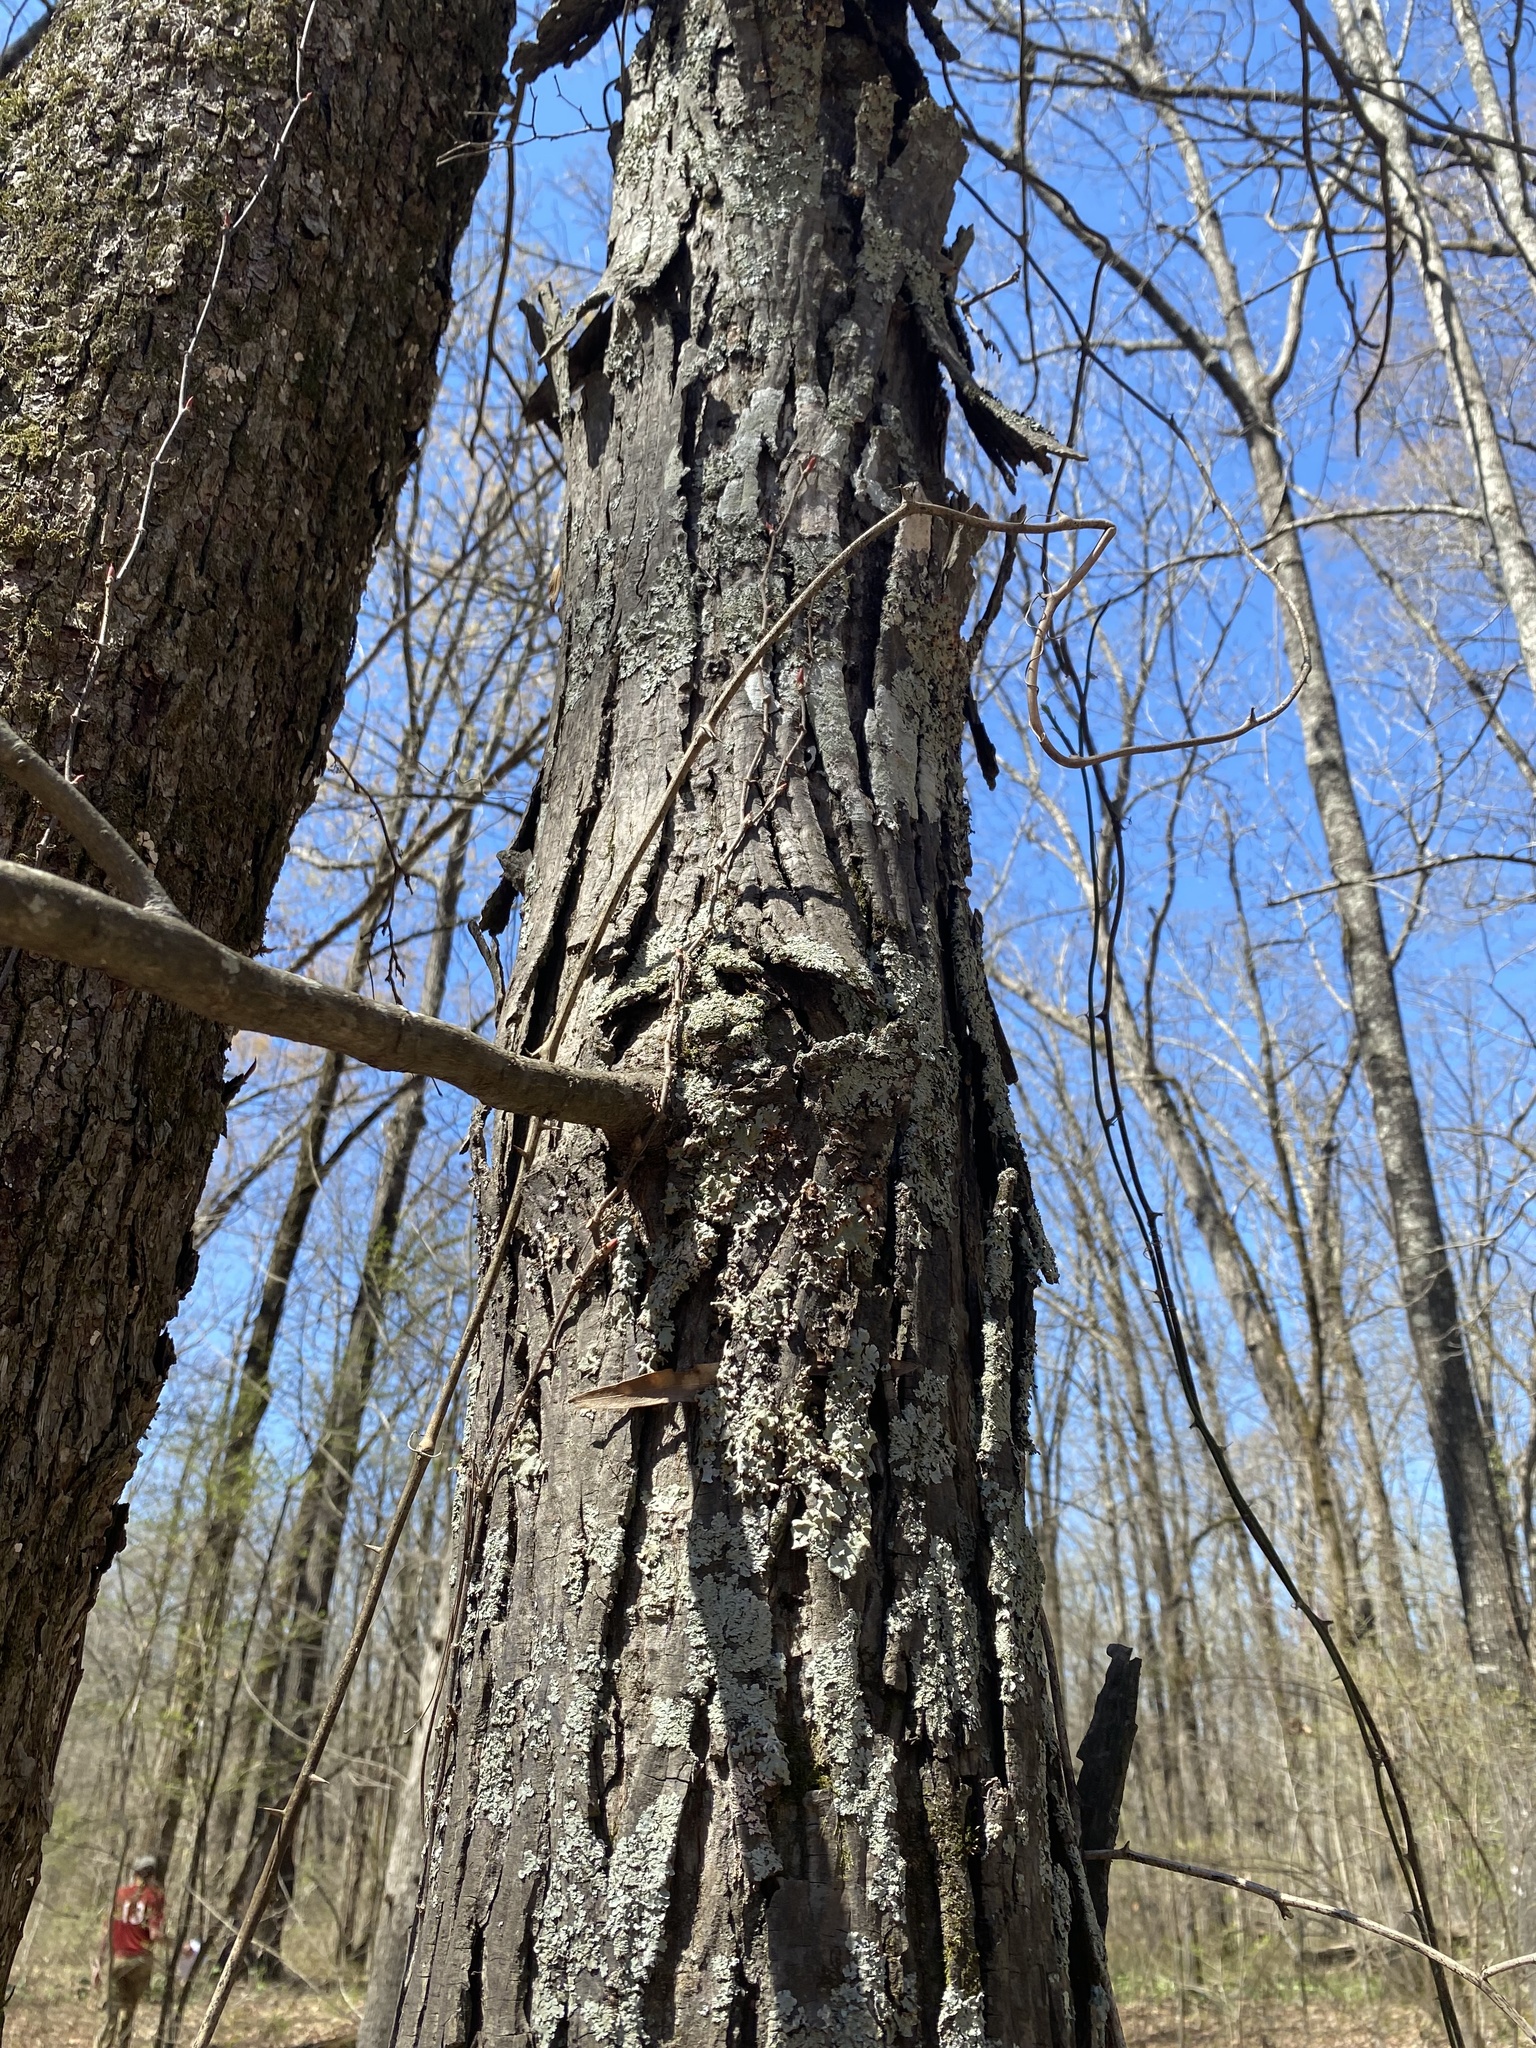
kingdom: Plantae
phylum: Tracheophyta
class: Magnoliopsida
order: Fagales
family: Juglandaceae
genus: Carya
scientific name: Carya ovata
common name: Shagbark hickory
